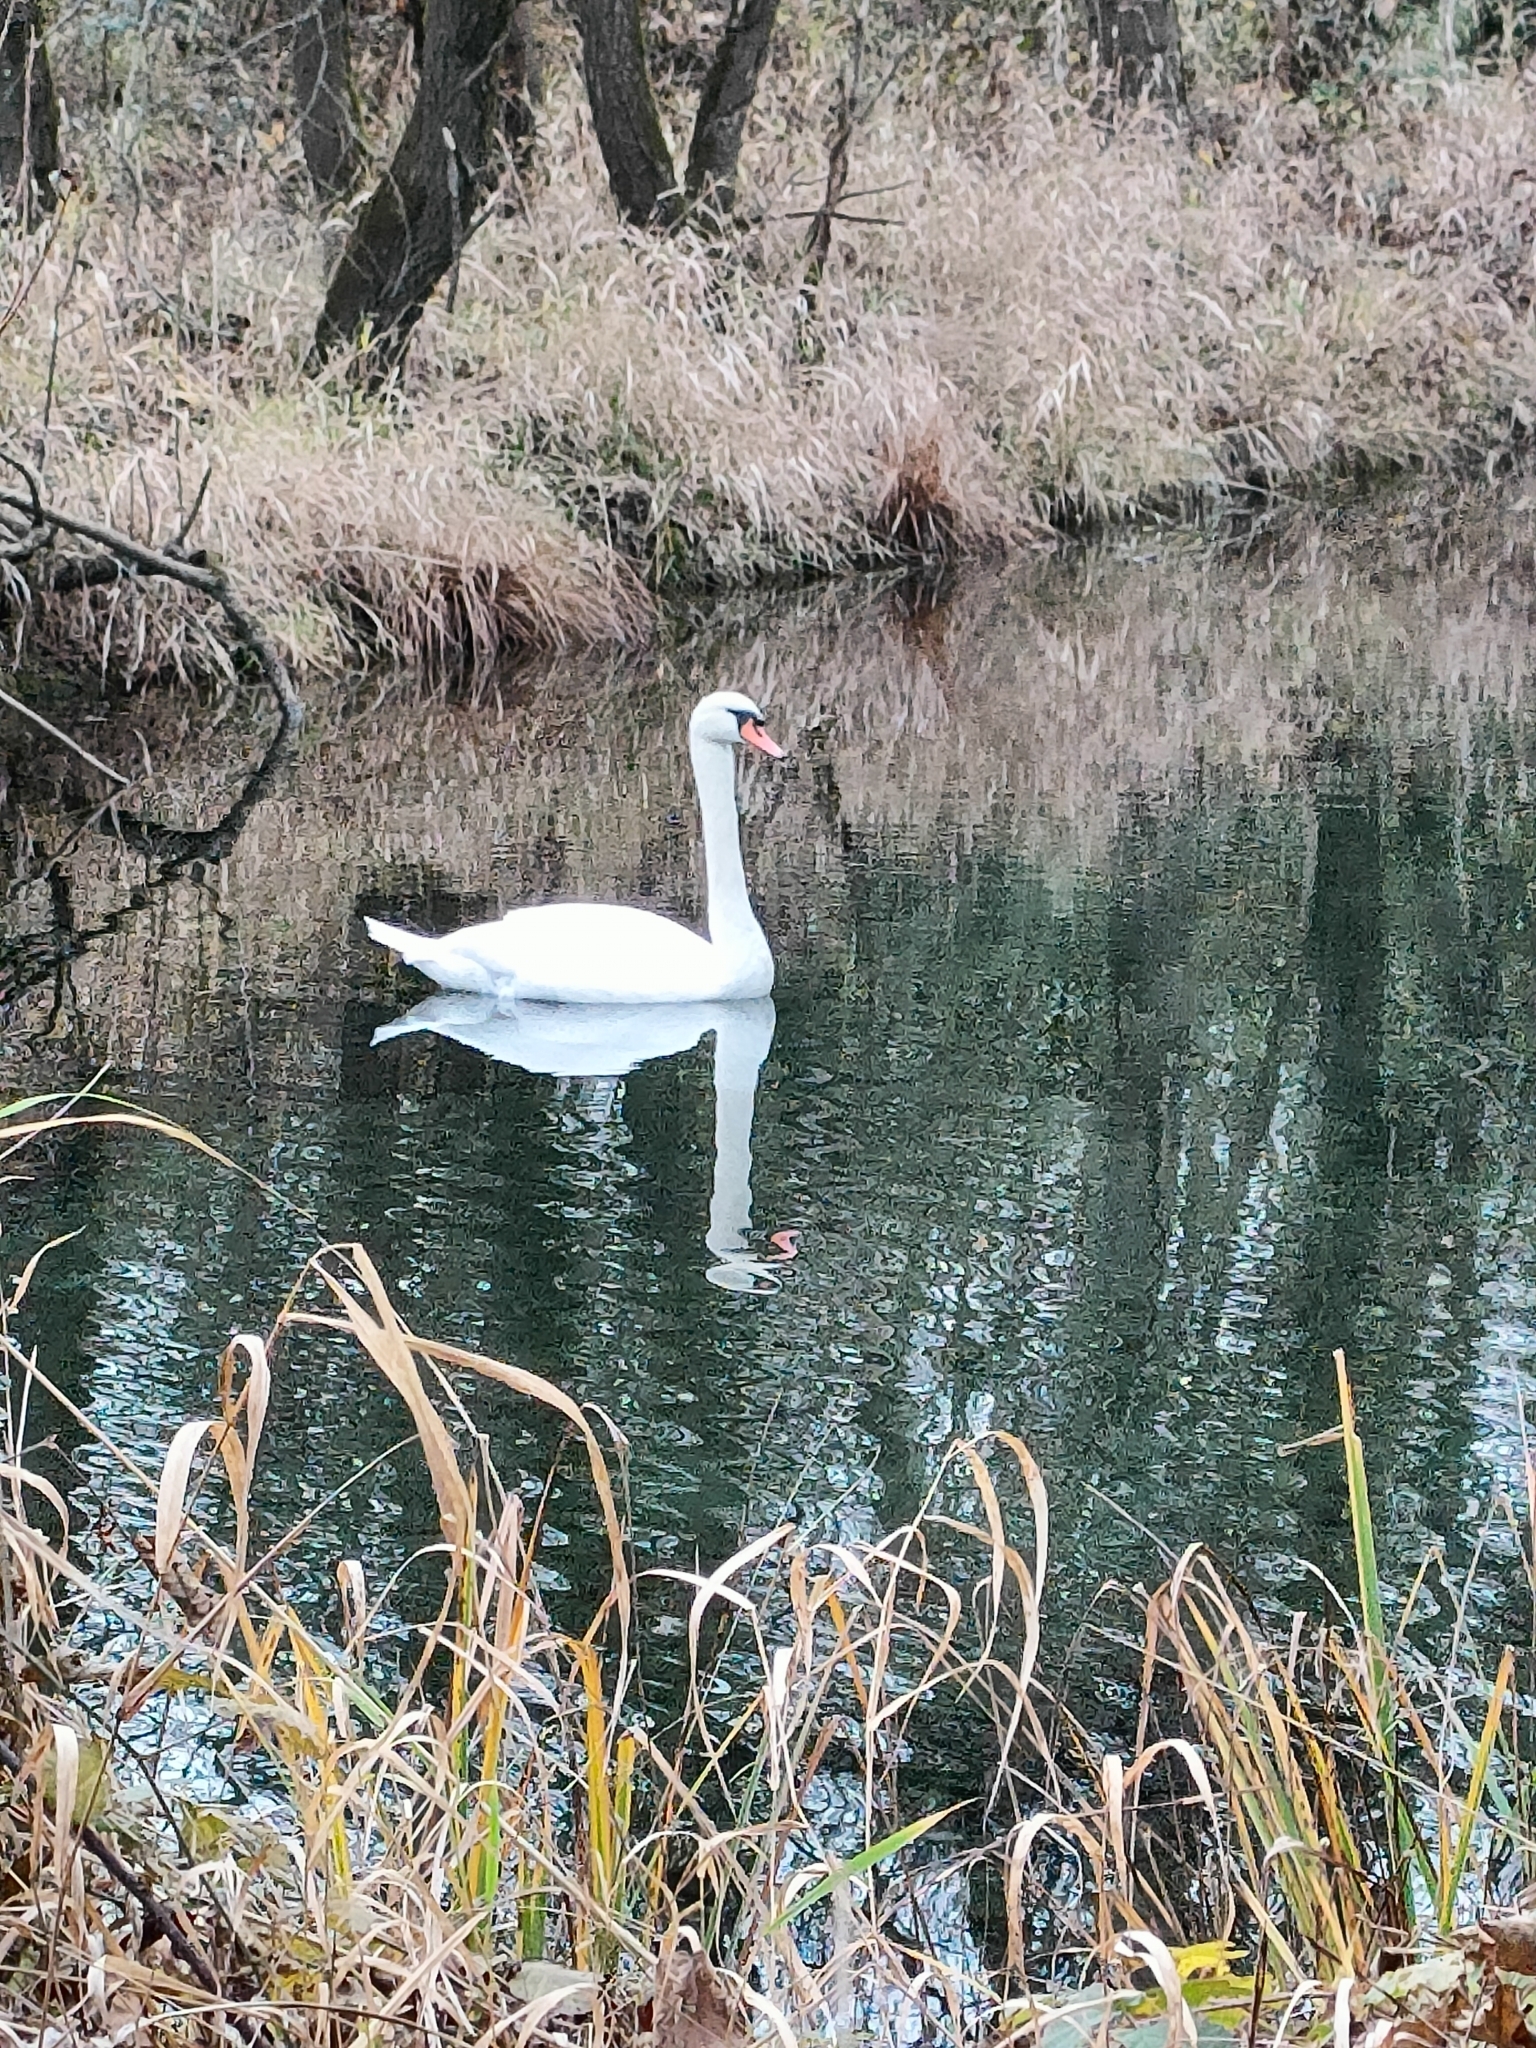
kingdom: Animalia
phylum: Chordata
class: Aves
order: Anseriformes
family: Anatidae
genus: Cygnus
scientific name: Cygnus olor
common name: Mute swan
